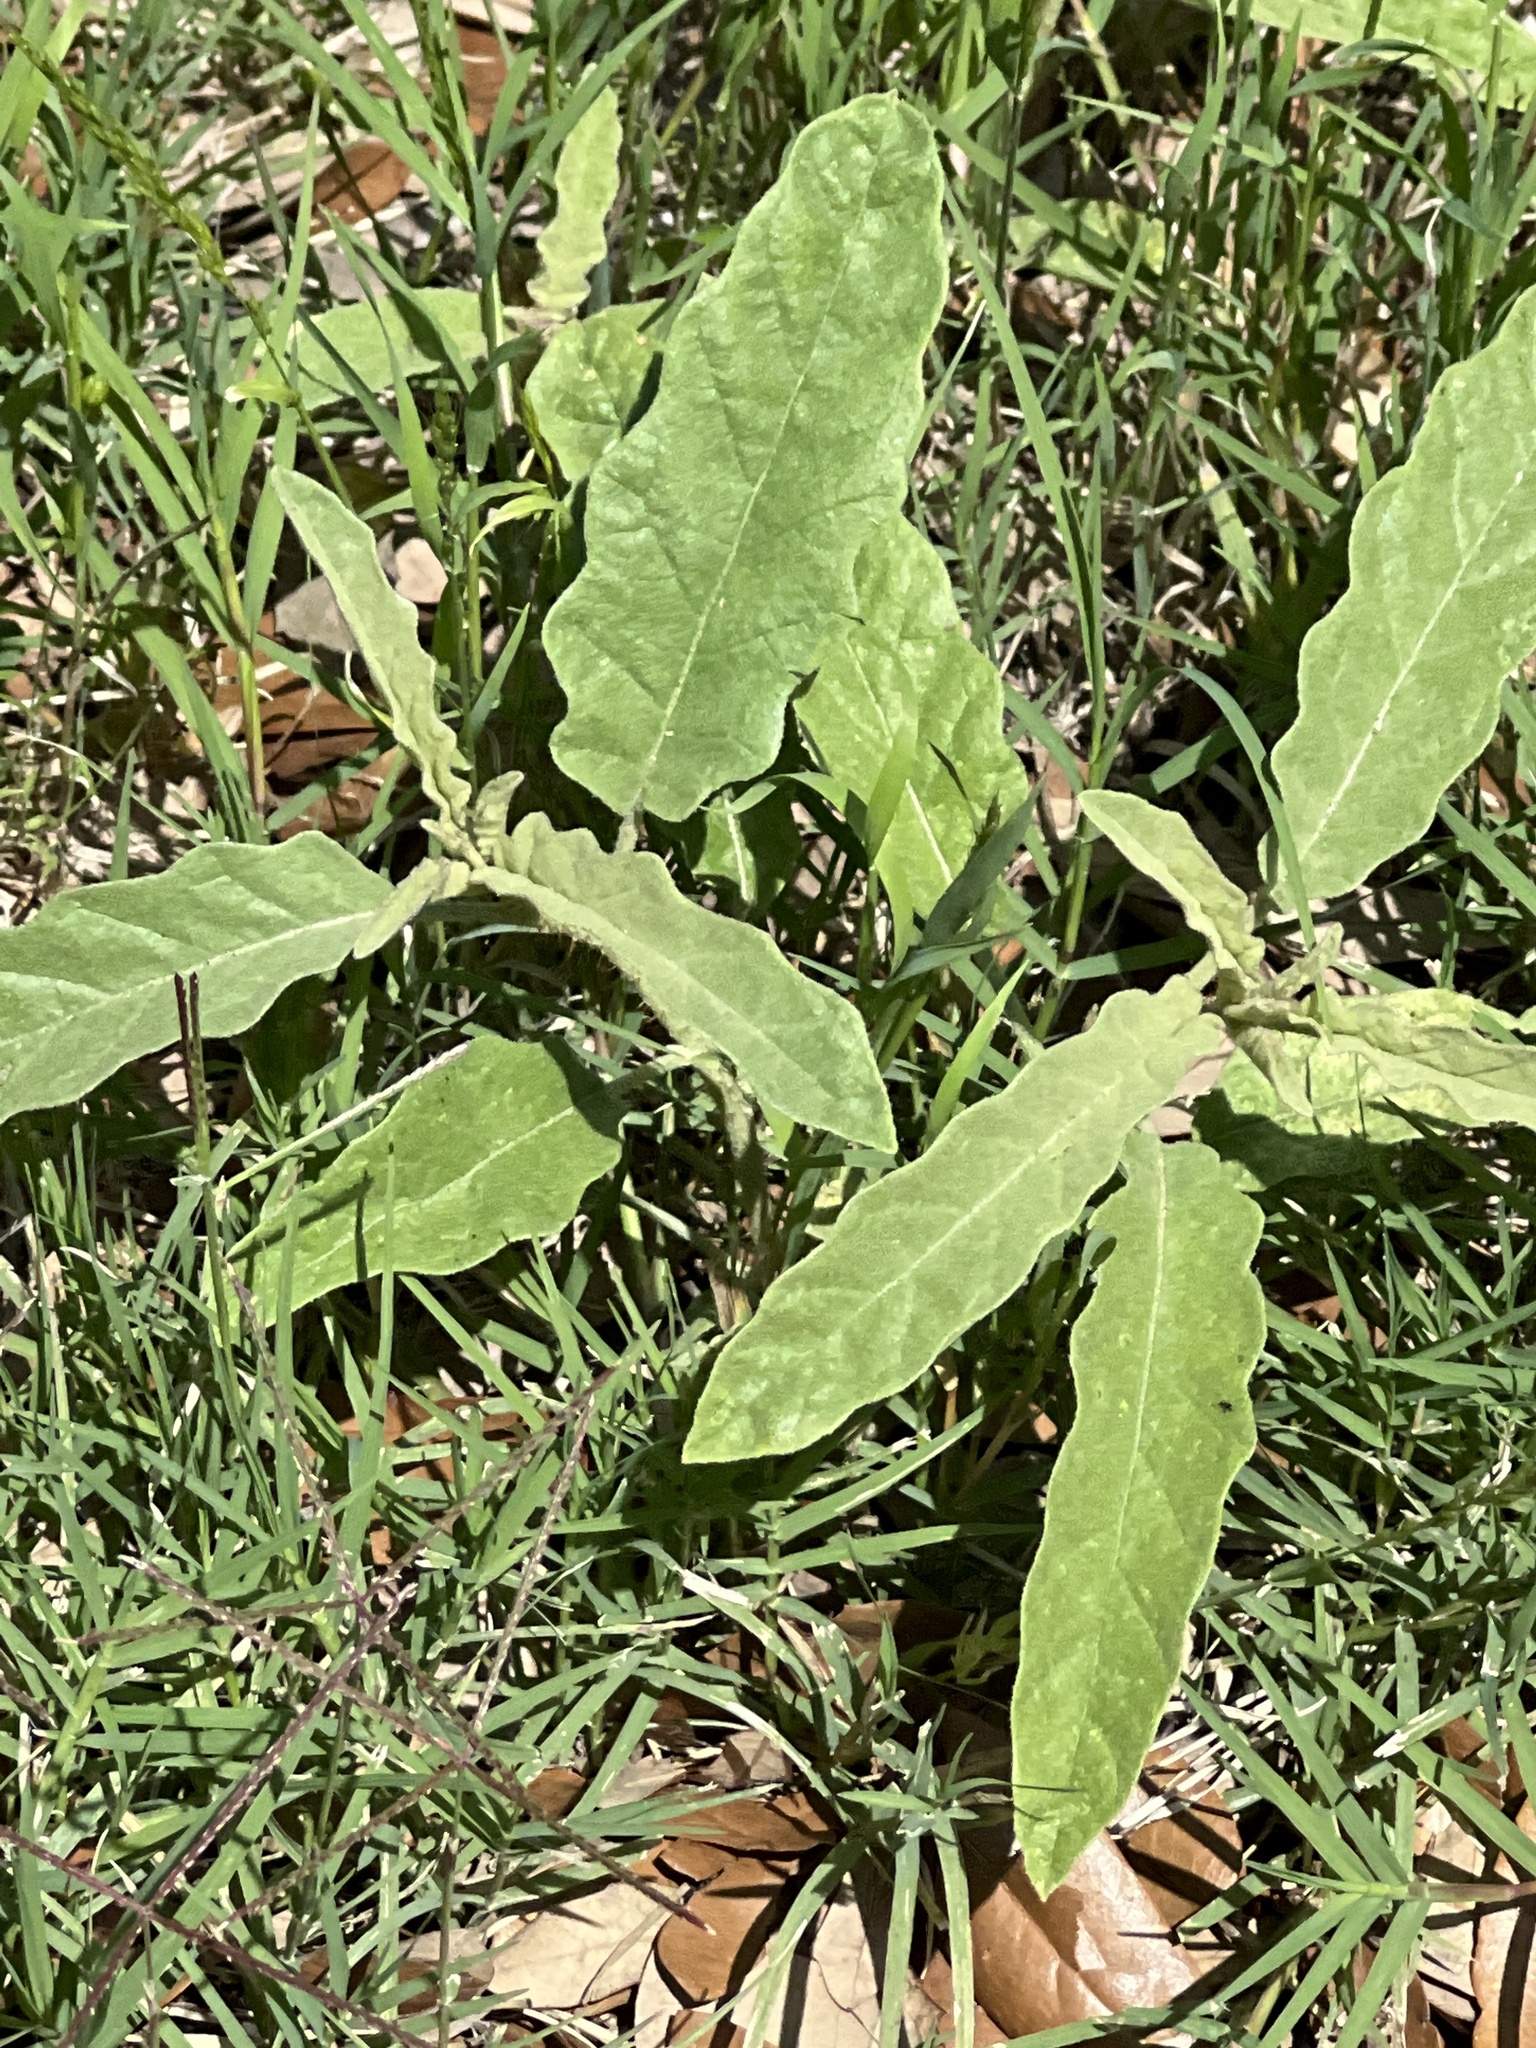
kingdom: Plantae
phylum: Tracheophyta
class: Magnoliopsida
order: Solanales
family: Solanaceae
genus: Solanum
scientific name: Solanum elaeagnifolium
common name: Silverleaf nightshade
